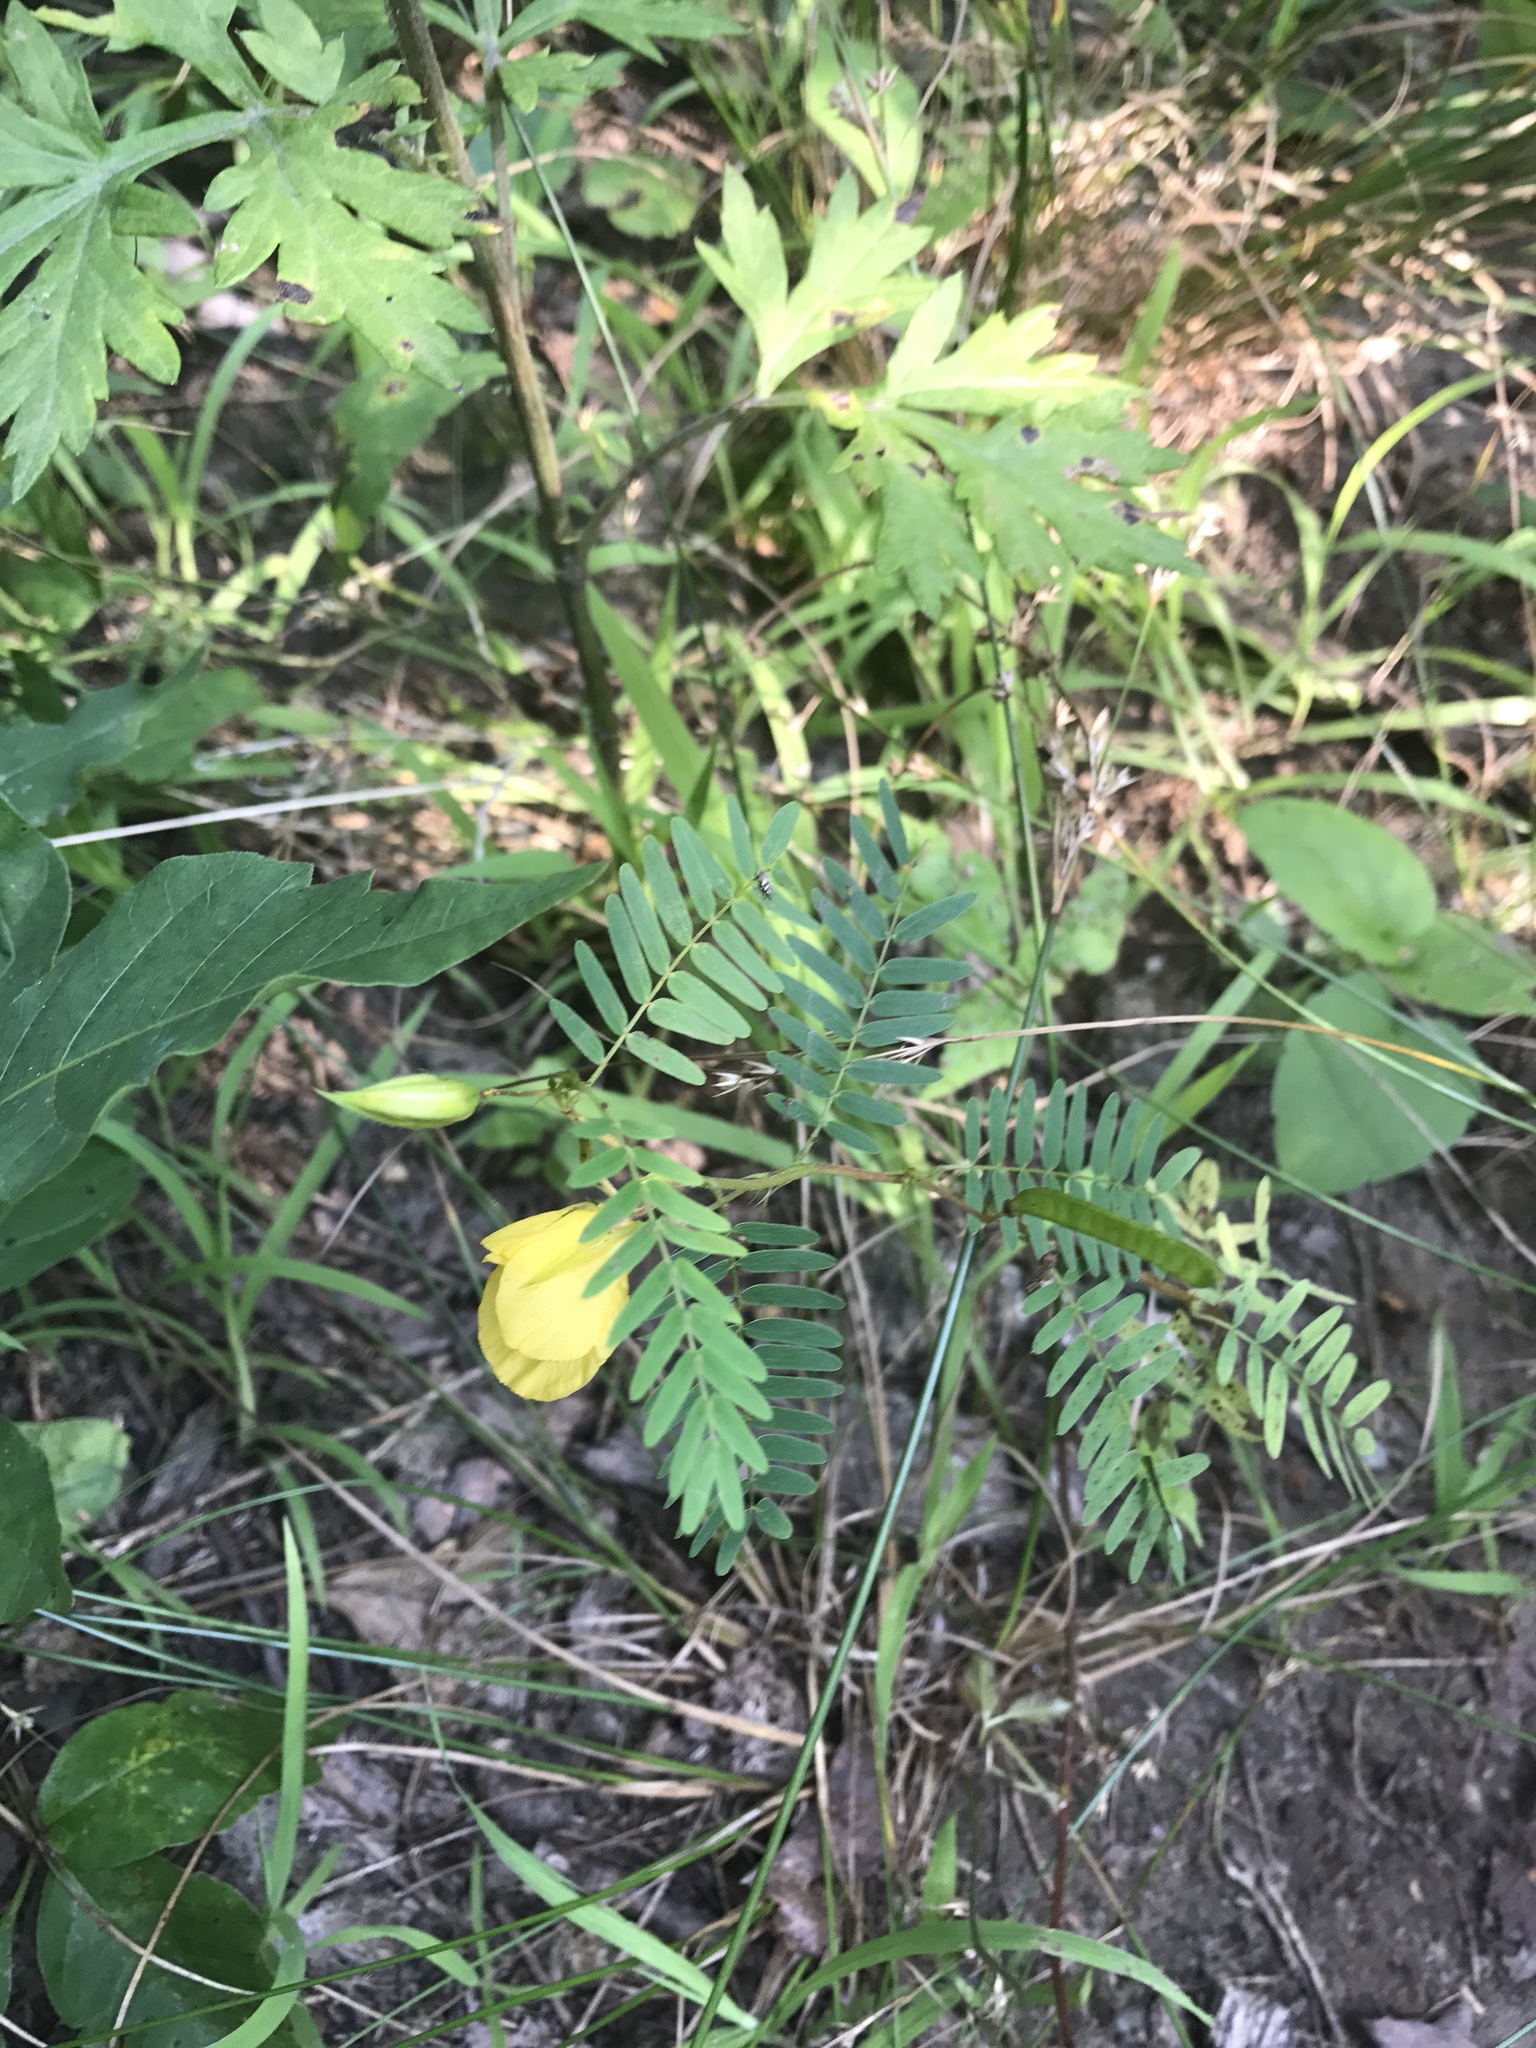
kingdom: Plantae
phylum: Tracheophyta
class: Magnoliopsida
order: Fabales
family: Fabaceae
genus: Chamaecrista
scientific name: Chamaecrista fasciculata
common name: Golden cassia
